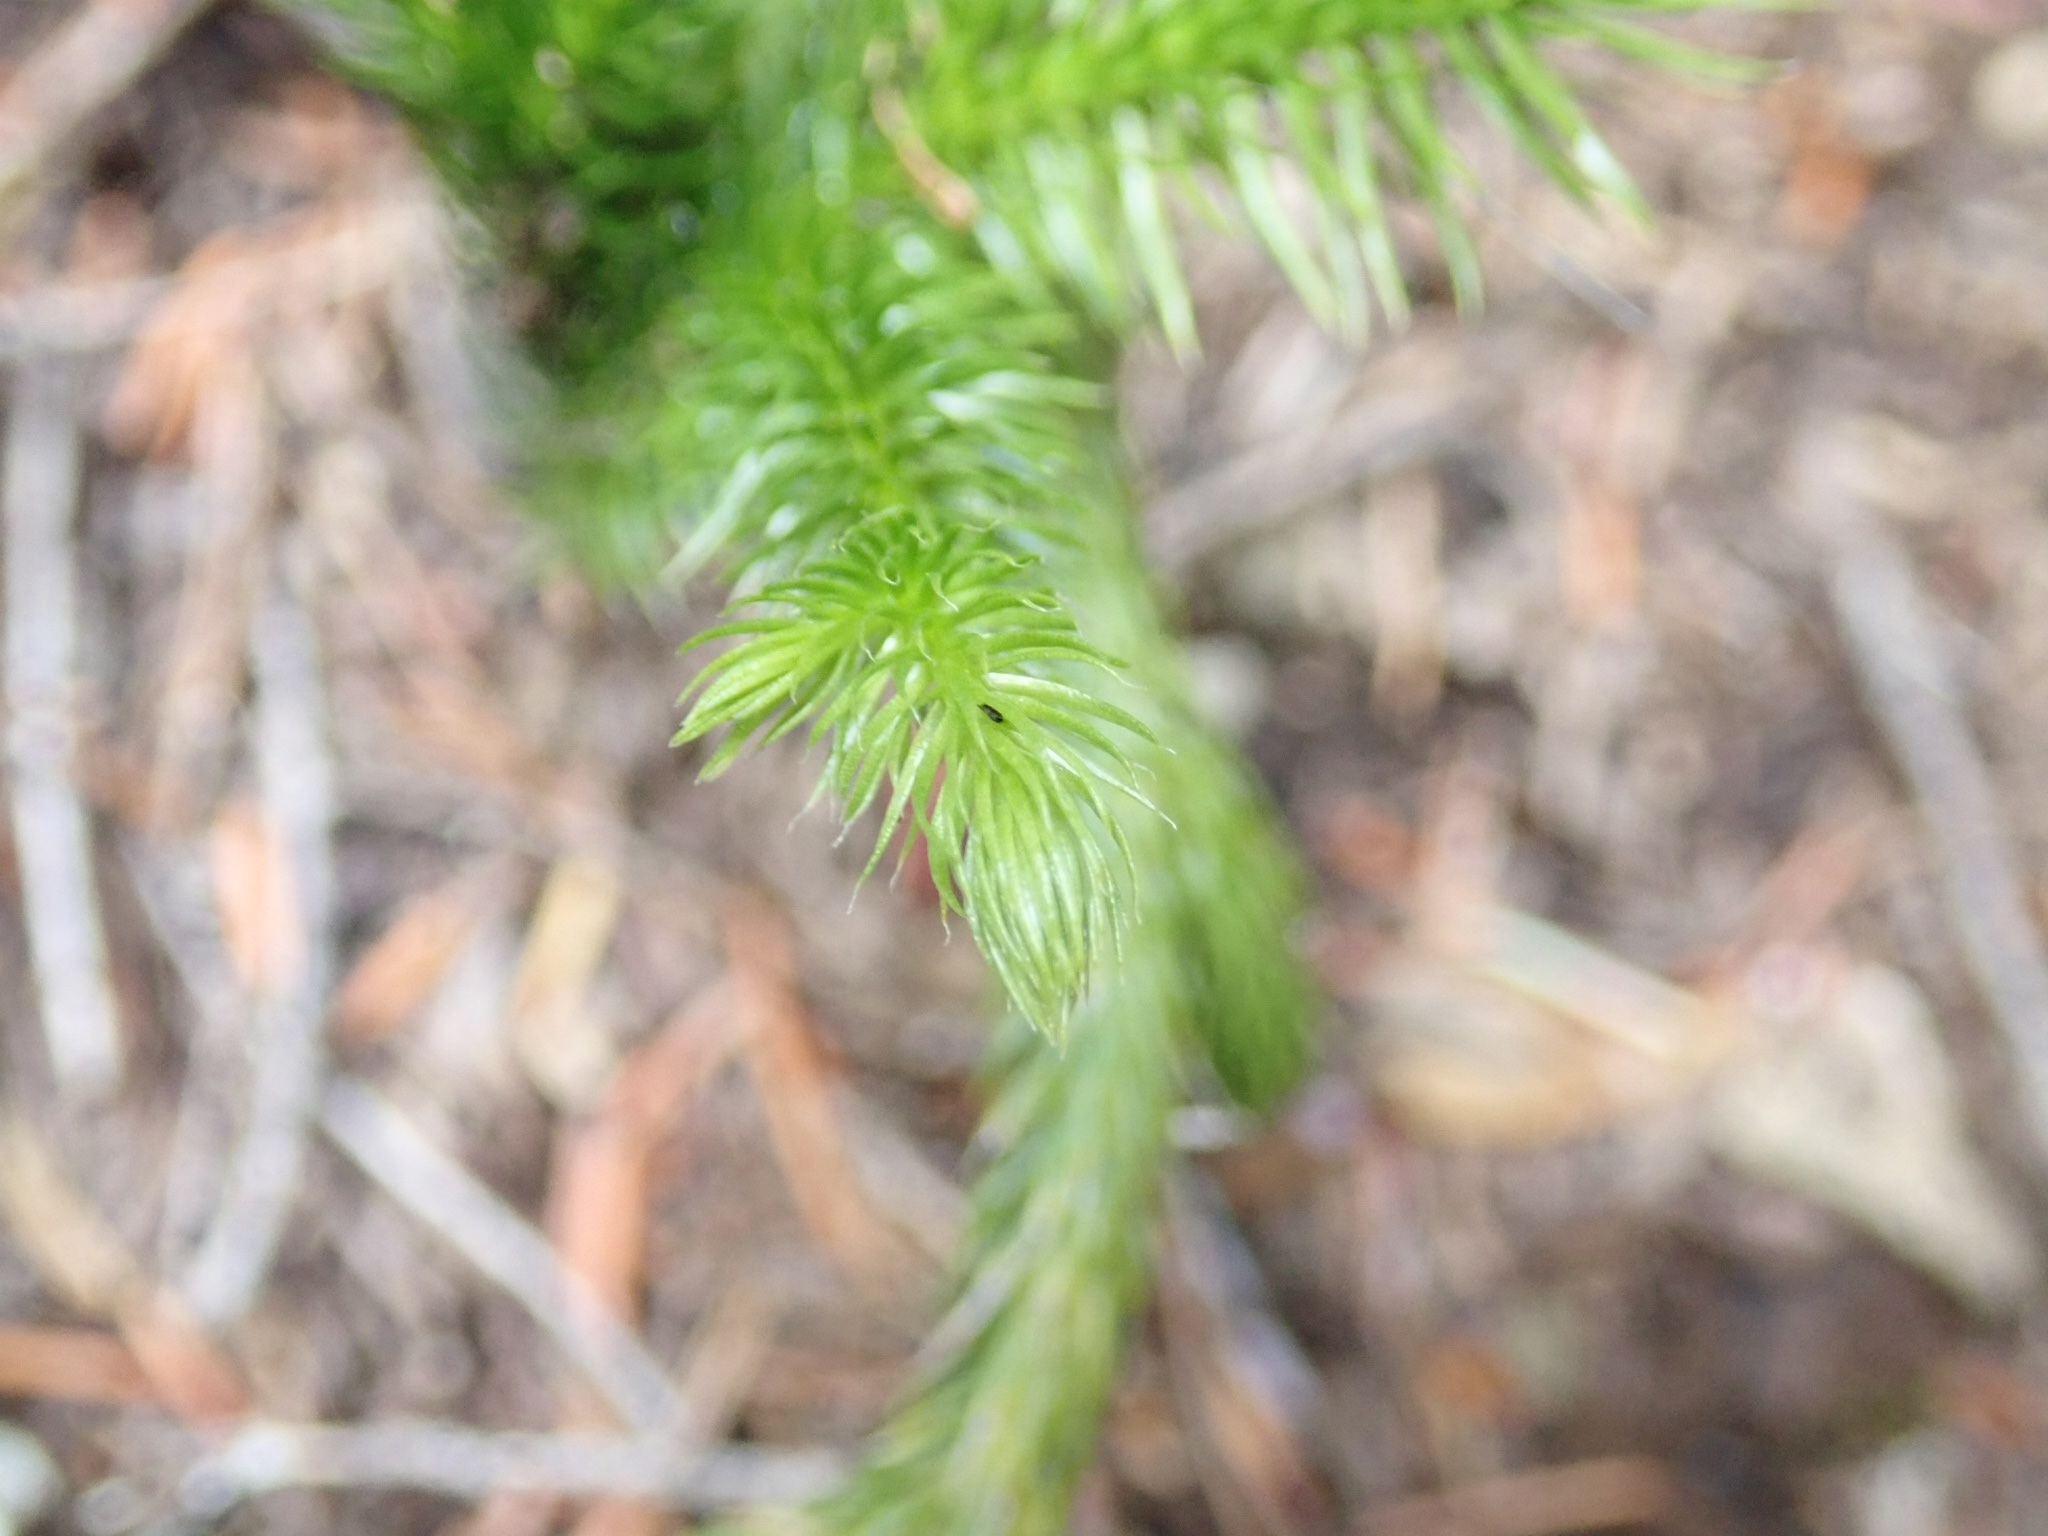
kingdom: Plantae
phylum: Tracheophyta
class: Lycopodiopsida
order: Lycopodiales
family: Lycopodiaceae
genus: Lycopodium
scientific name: Lycopodium clavatum
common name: Stag's-horn clubmoss
